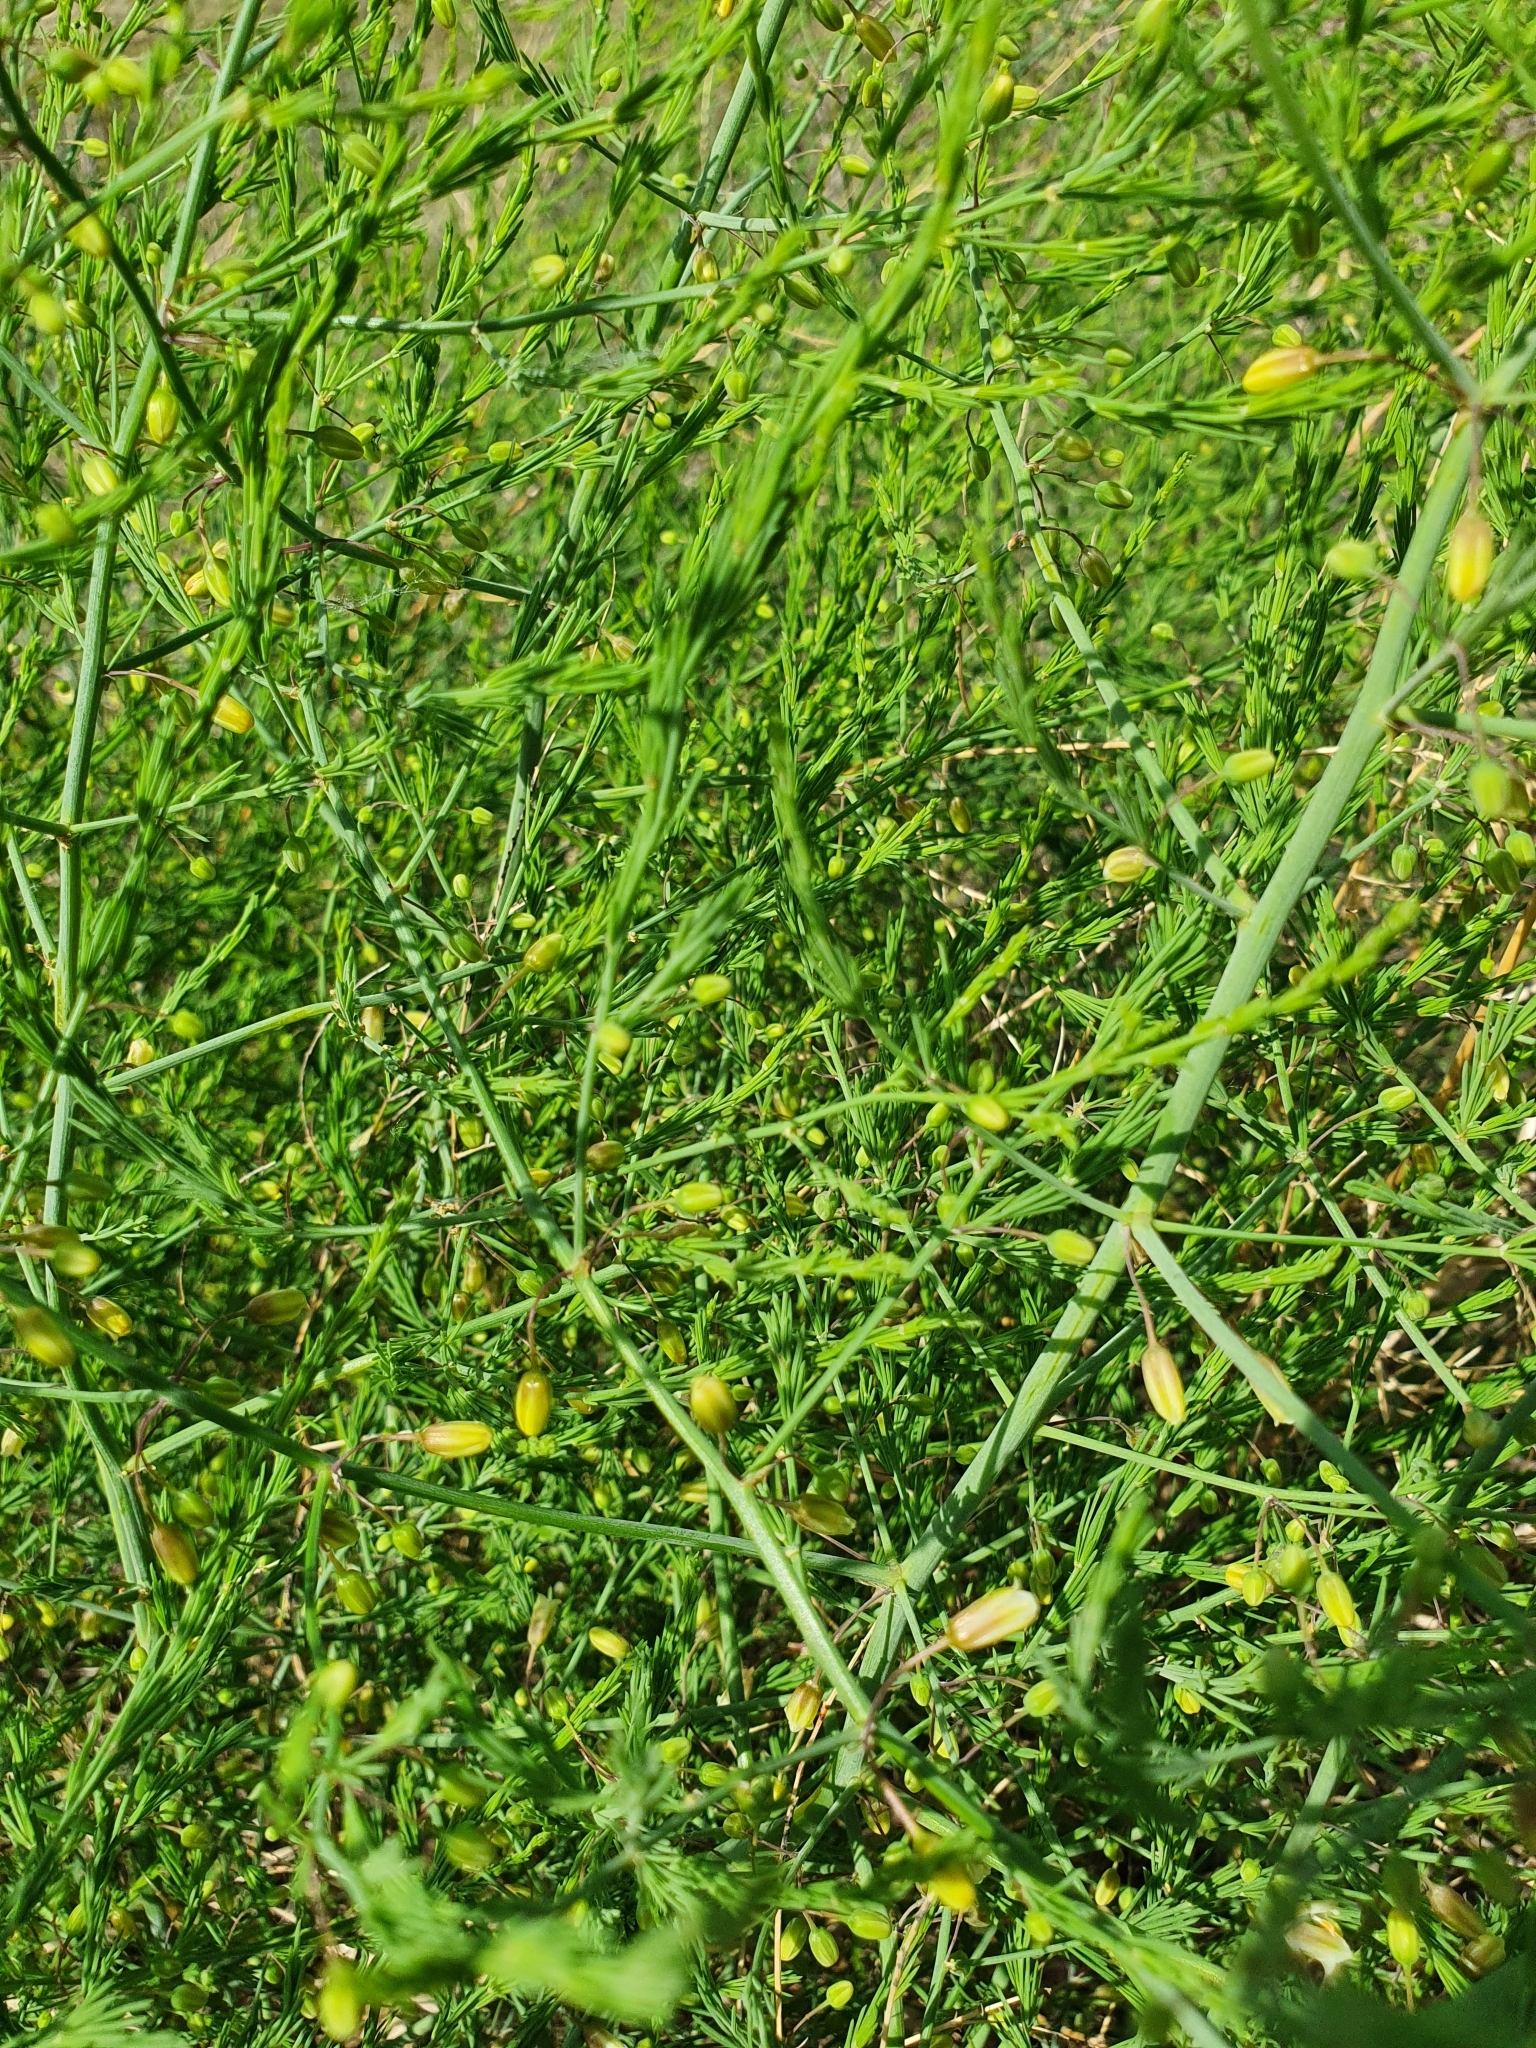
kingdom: Plantae
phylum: Tracheophyta
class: Liliopsida
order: Asparagales
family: Asparagaceae
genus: Asparagus
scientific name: Asparagus officinalis
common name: Garden asparagus
